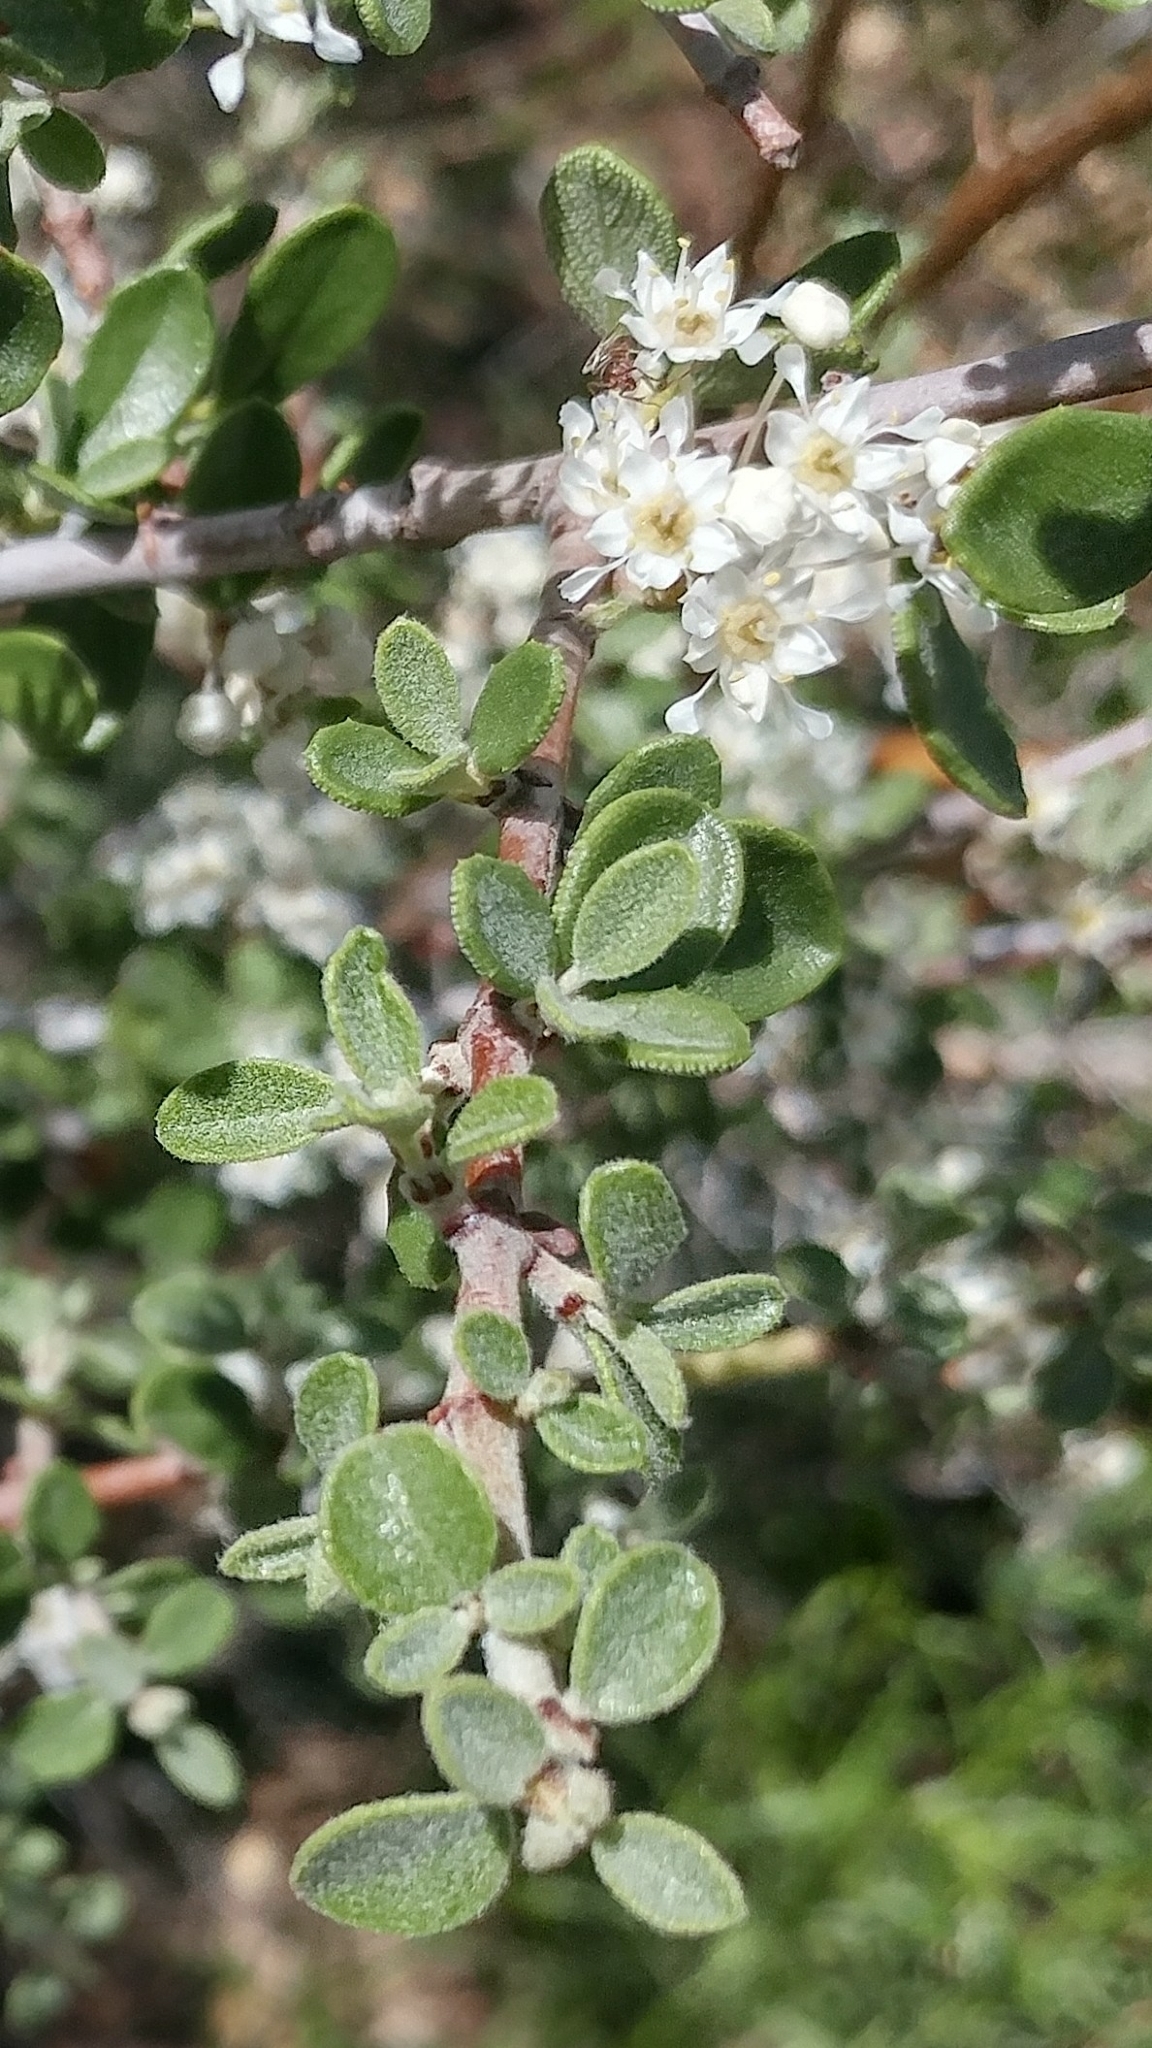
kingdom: Plantae
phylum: Tracheophyta
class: Magnoliopsida
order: Rosales
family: Rhamnaceae
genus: Ceanothus
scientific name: Ceanothus pauciflorus
